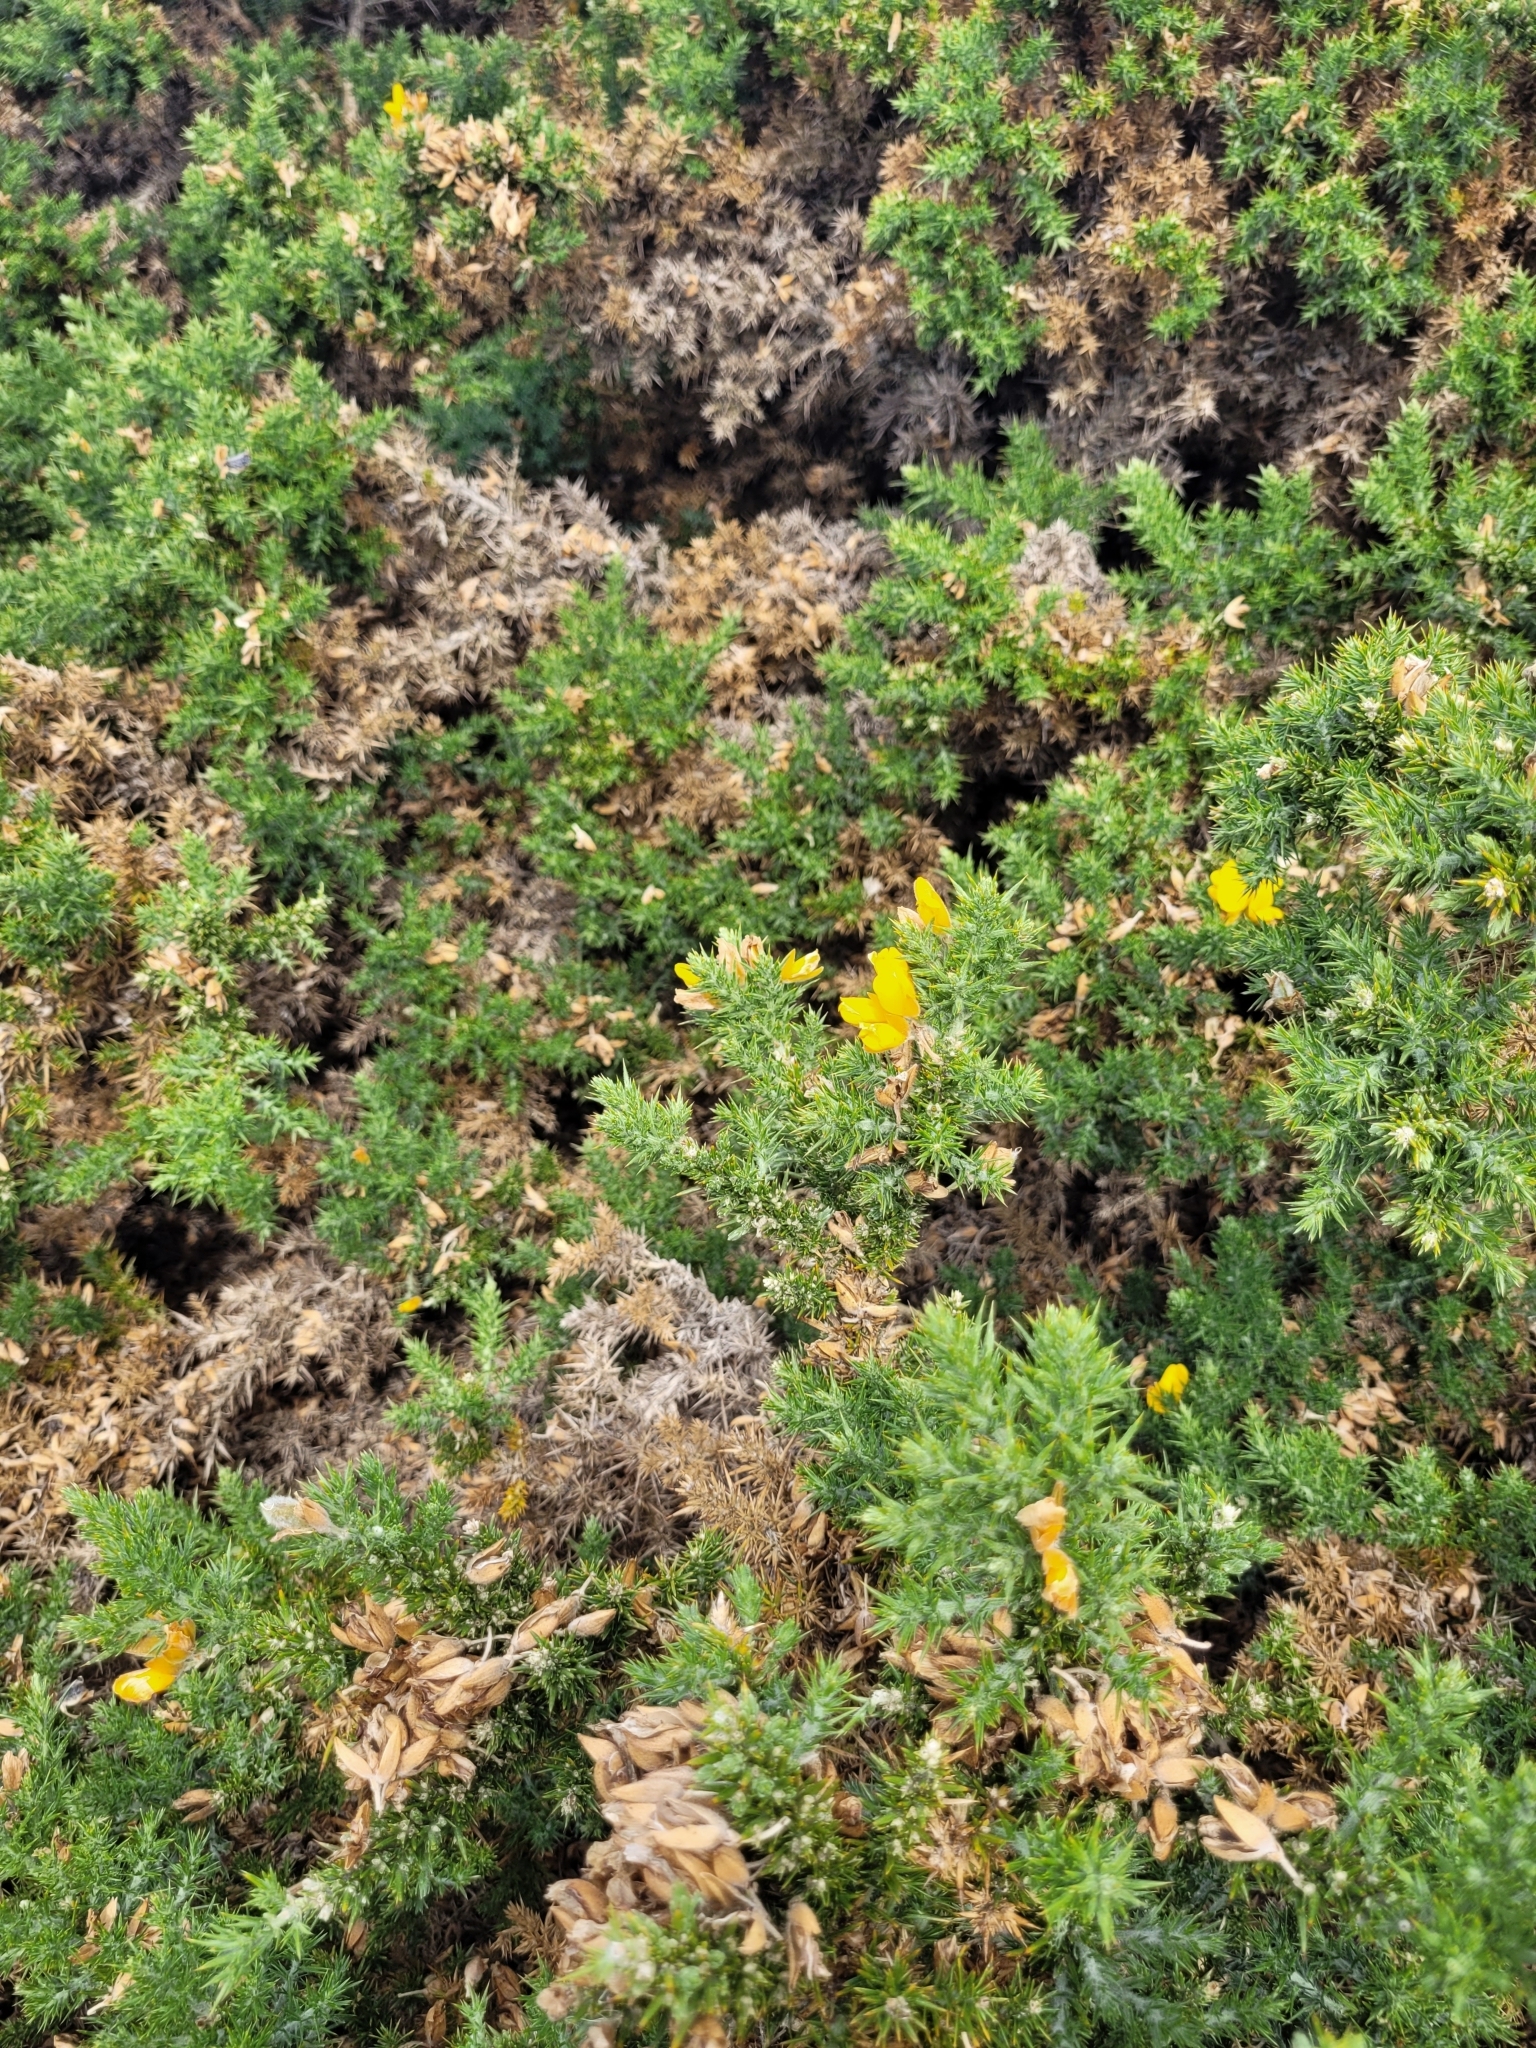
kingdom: Plantae
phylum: Tracheophyta
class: Magnoliopsida
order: Fabales
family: Fabaceae
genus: Ulex
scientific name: Ulex europaeus
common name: Common gorse
